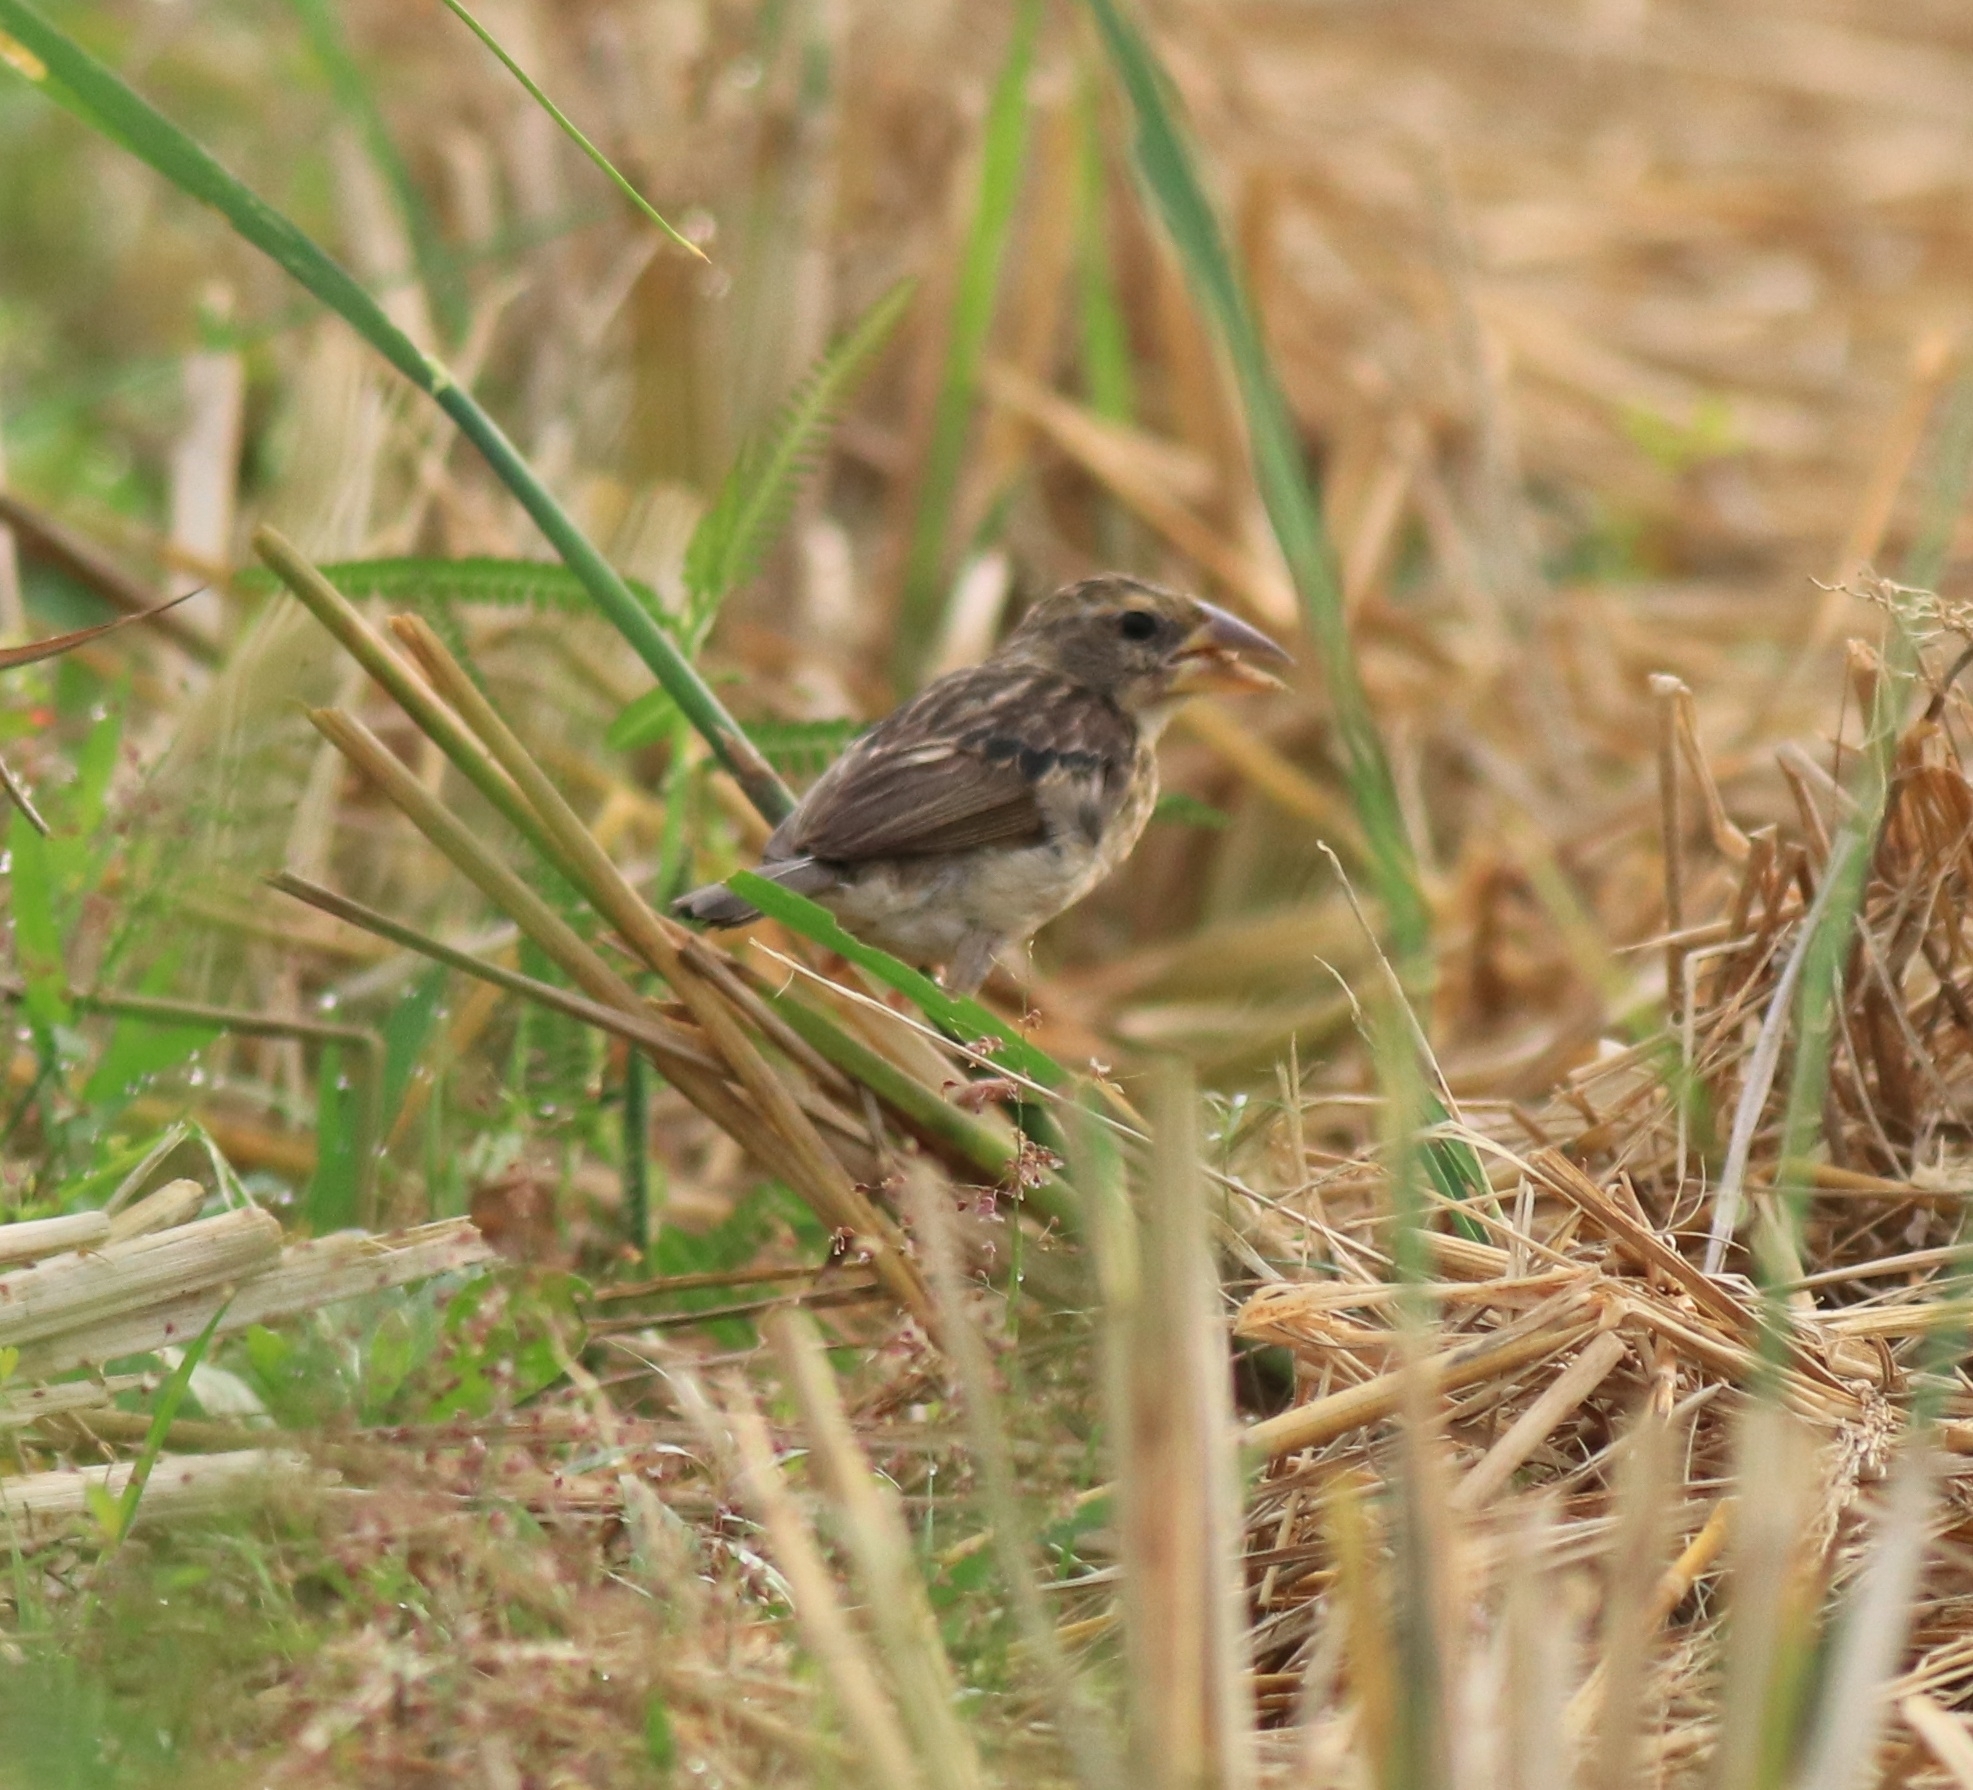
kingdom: Animalia
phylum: Chordata
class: Aves
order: Passeriformes
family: Ploceidae
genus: Ploceus
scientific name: Ploceus philippinus
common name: Baya weaver
